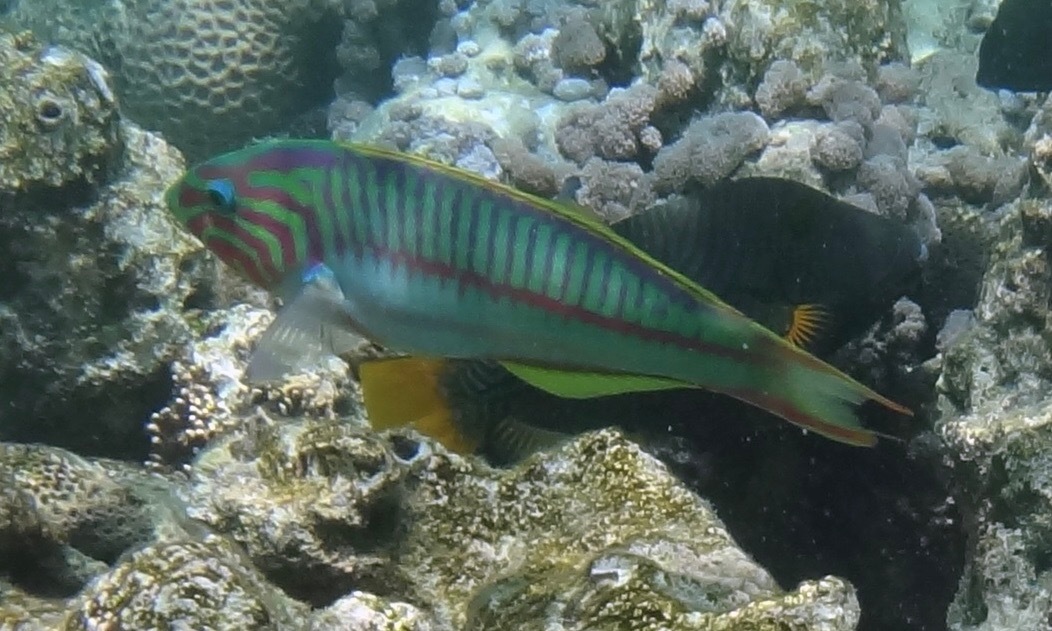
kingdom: Animalia
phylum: Chordata
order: Perciformes
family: Labridae
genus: Thalassoma
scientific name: Thalassoma rueppellii
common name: Klunzinger's wrasse
